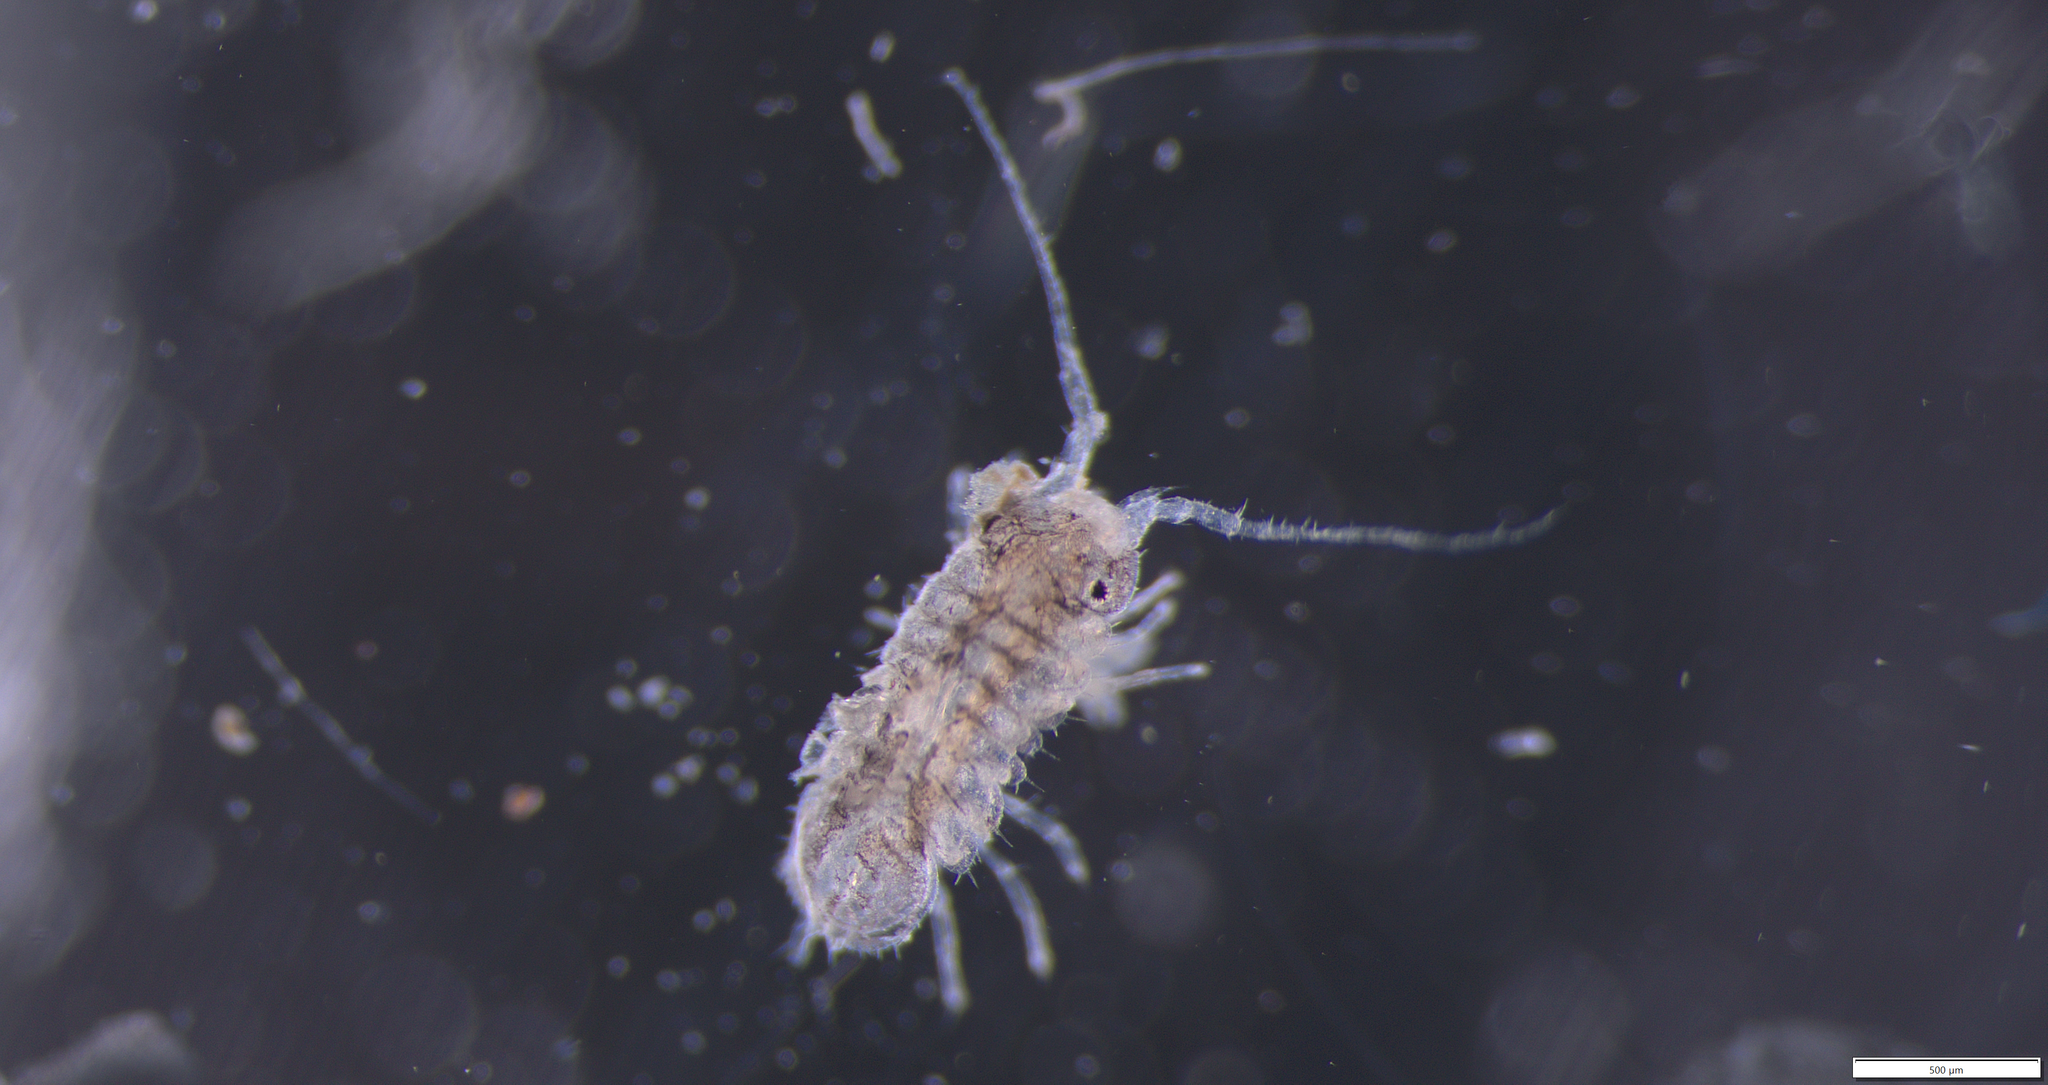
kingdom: Animalia
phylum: Arthropoda
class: Malacostraca
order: Isopoda
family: Janiridae
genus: Jaera
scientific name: Jaera
